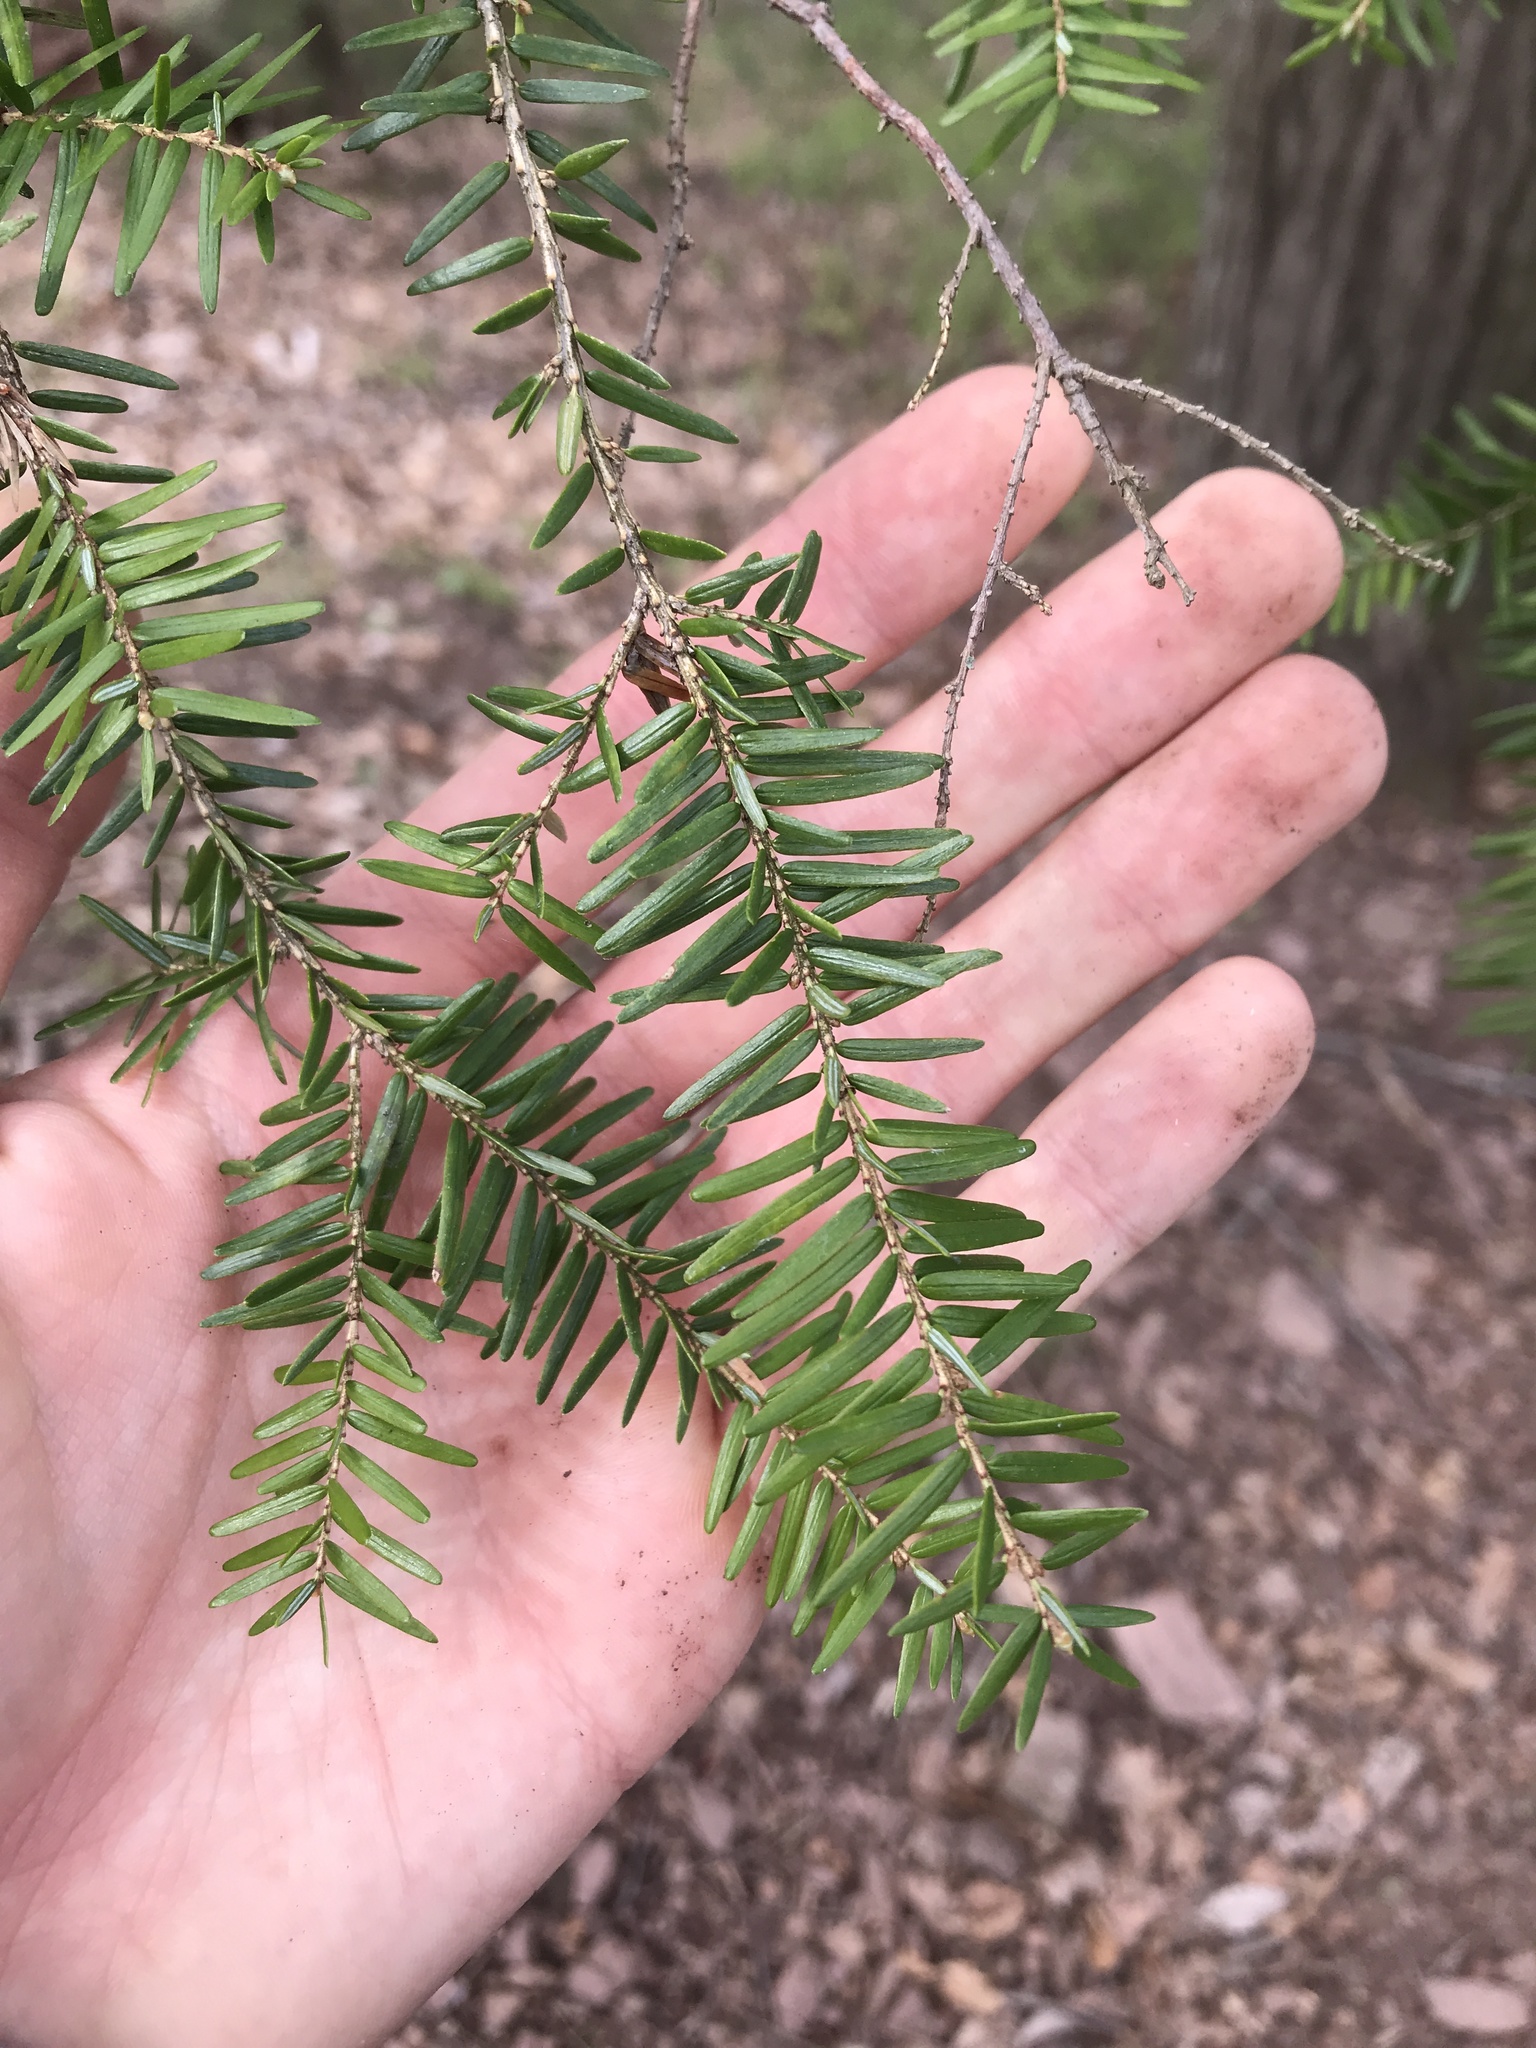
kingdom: Plantae
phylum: Tracheophyta
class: Pinopsida
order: Pinales
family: Pinaceae
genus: Tsuga
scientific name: Tsuga canadensis
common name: Eastern hemlock
